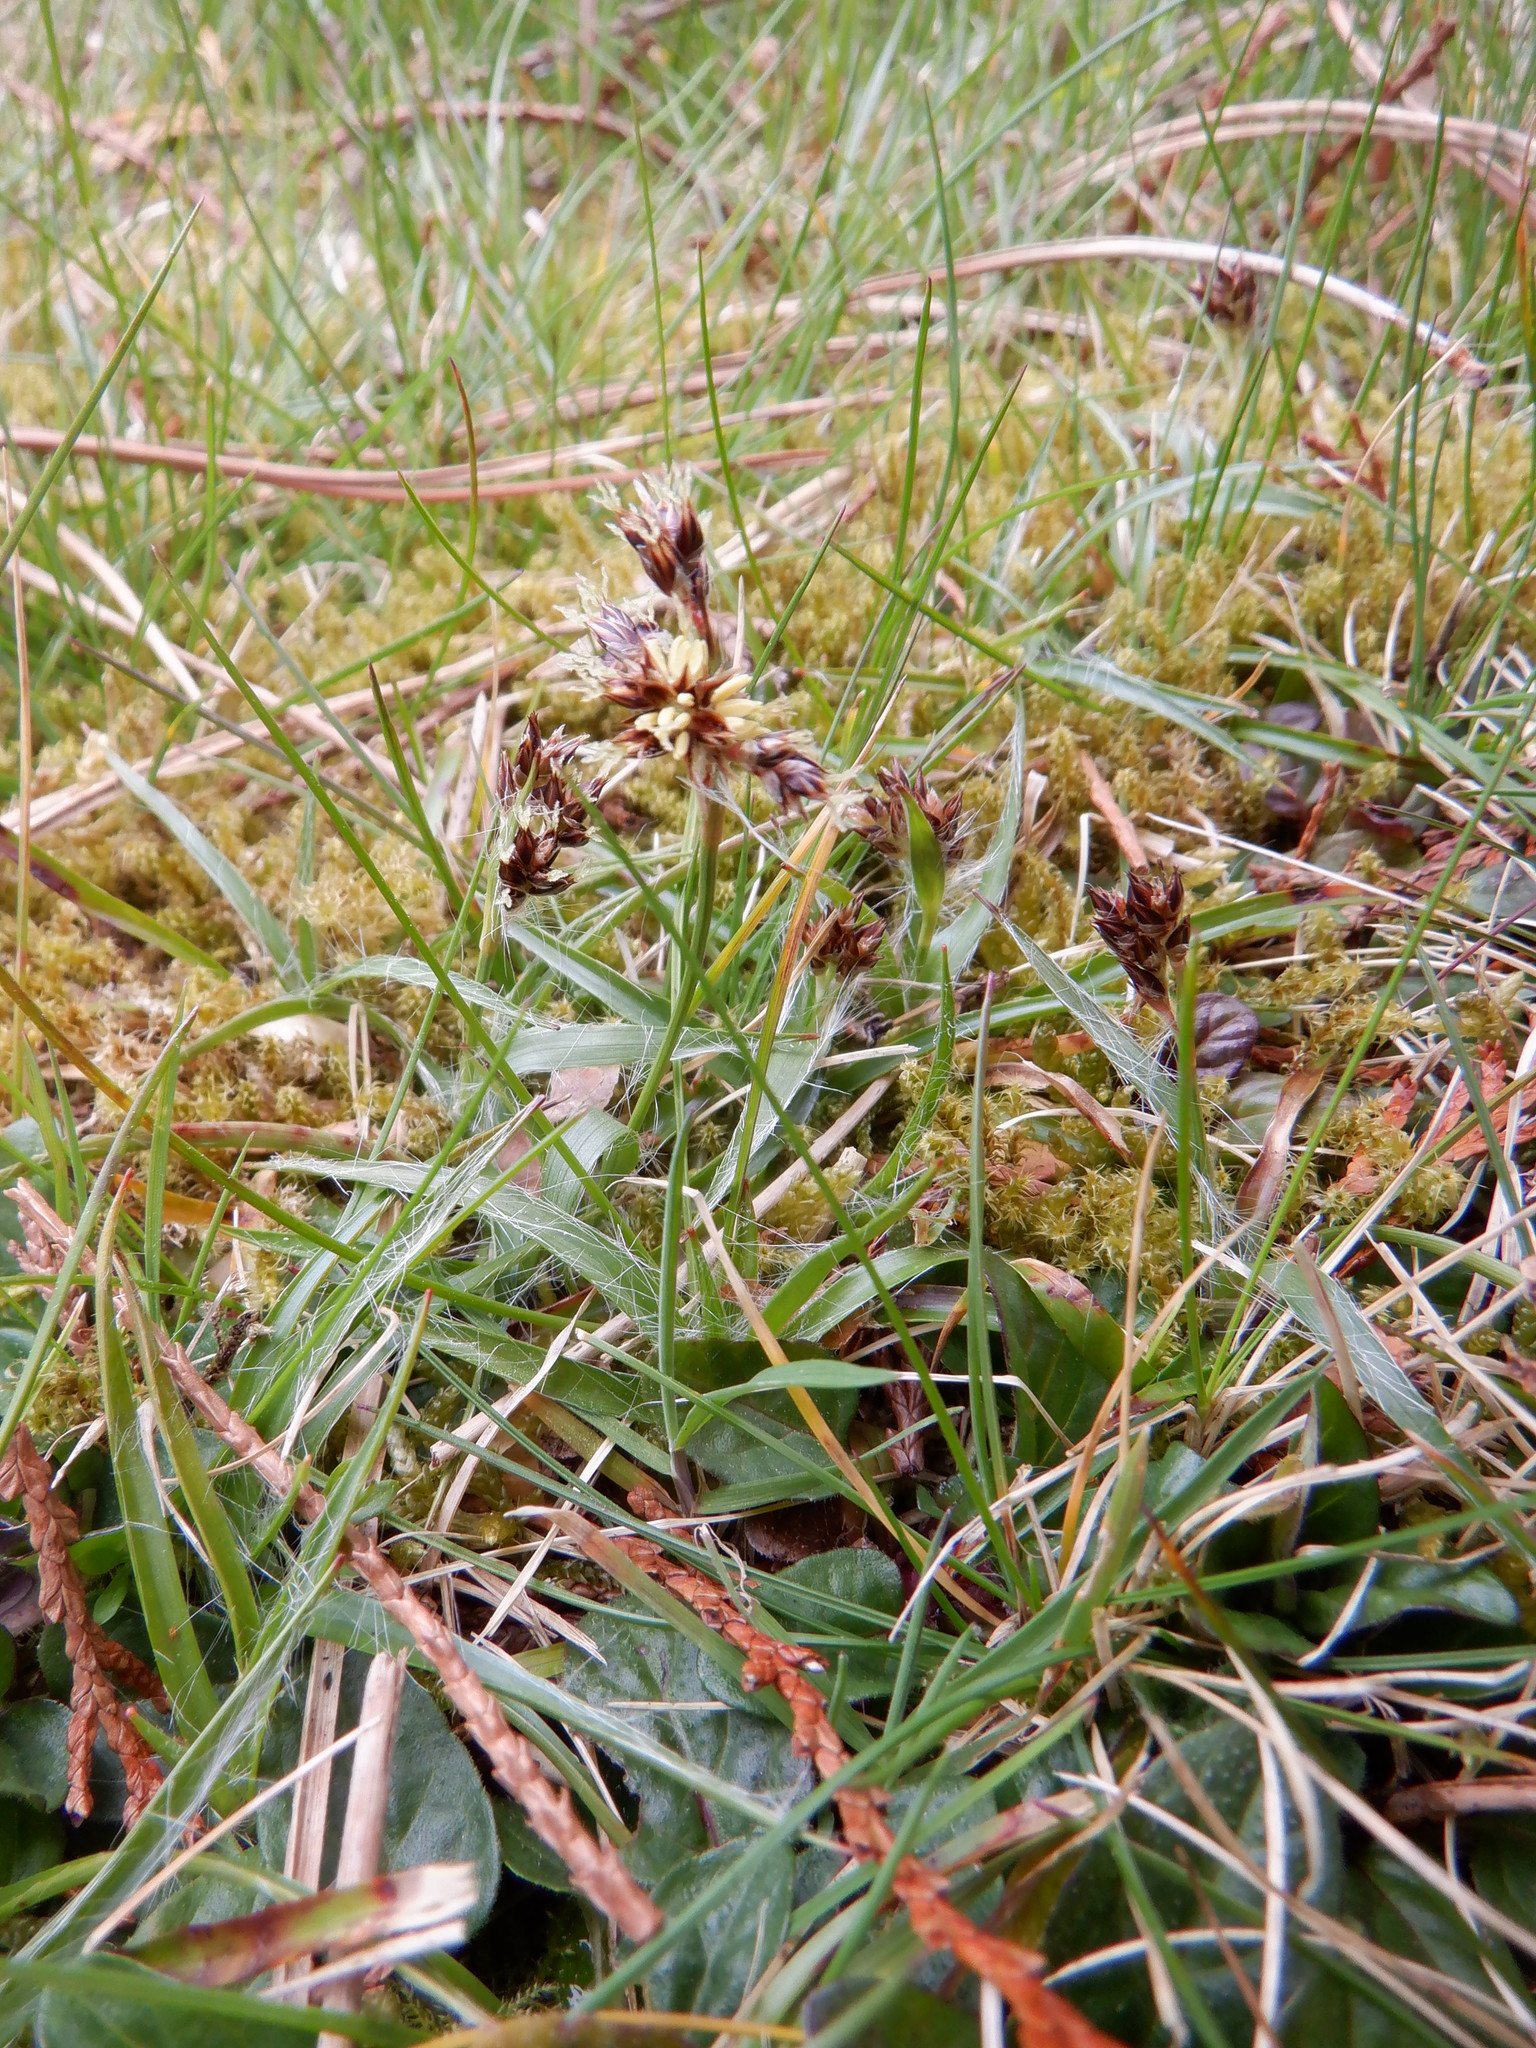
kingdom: Plantae
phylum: Tracheophyta
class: Liliopsida
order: Poales
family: Juncaceae
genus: Luzula
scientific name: Luzula campestris
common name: Field wood-rush
